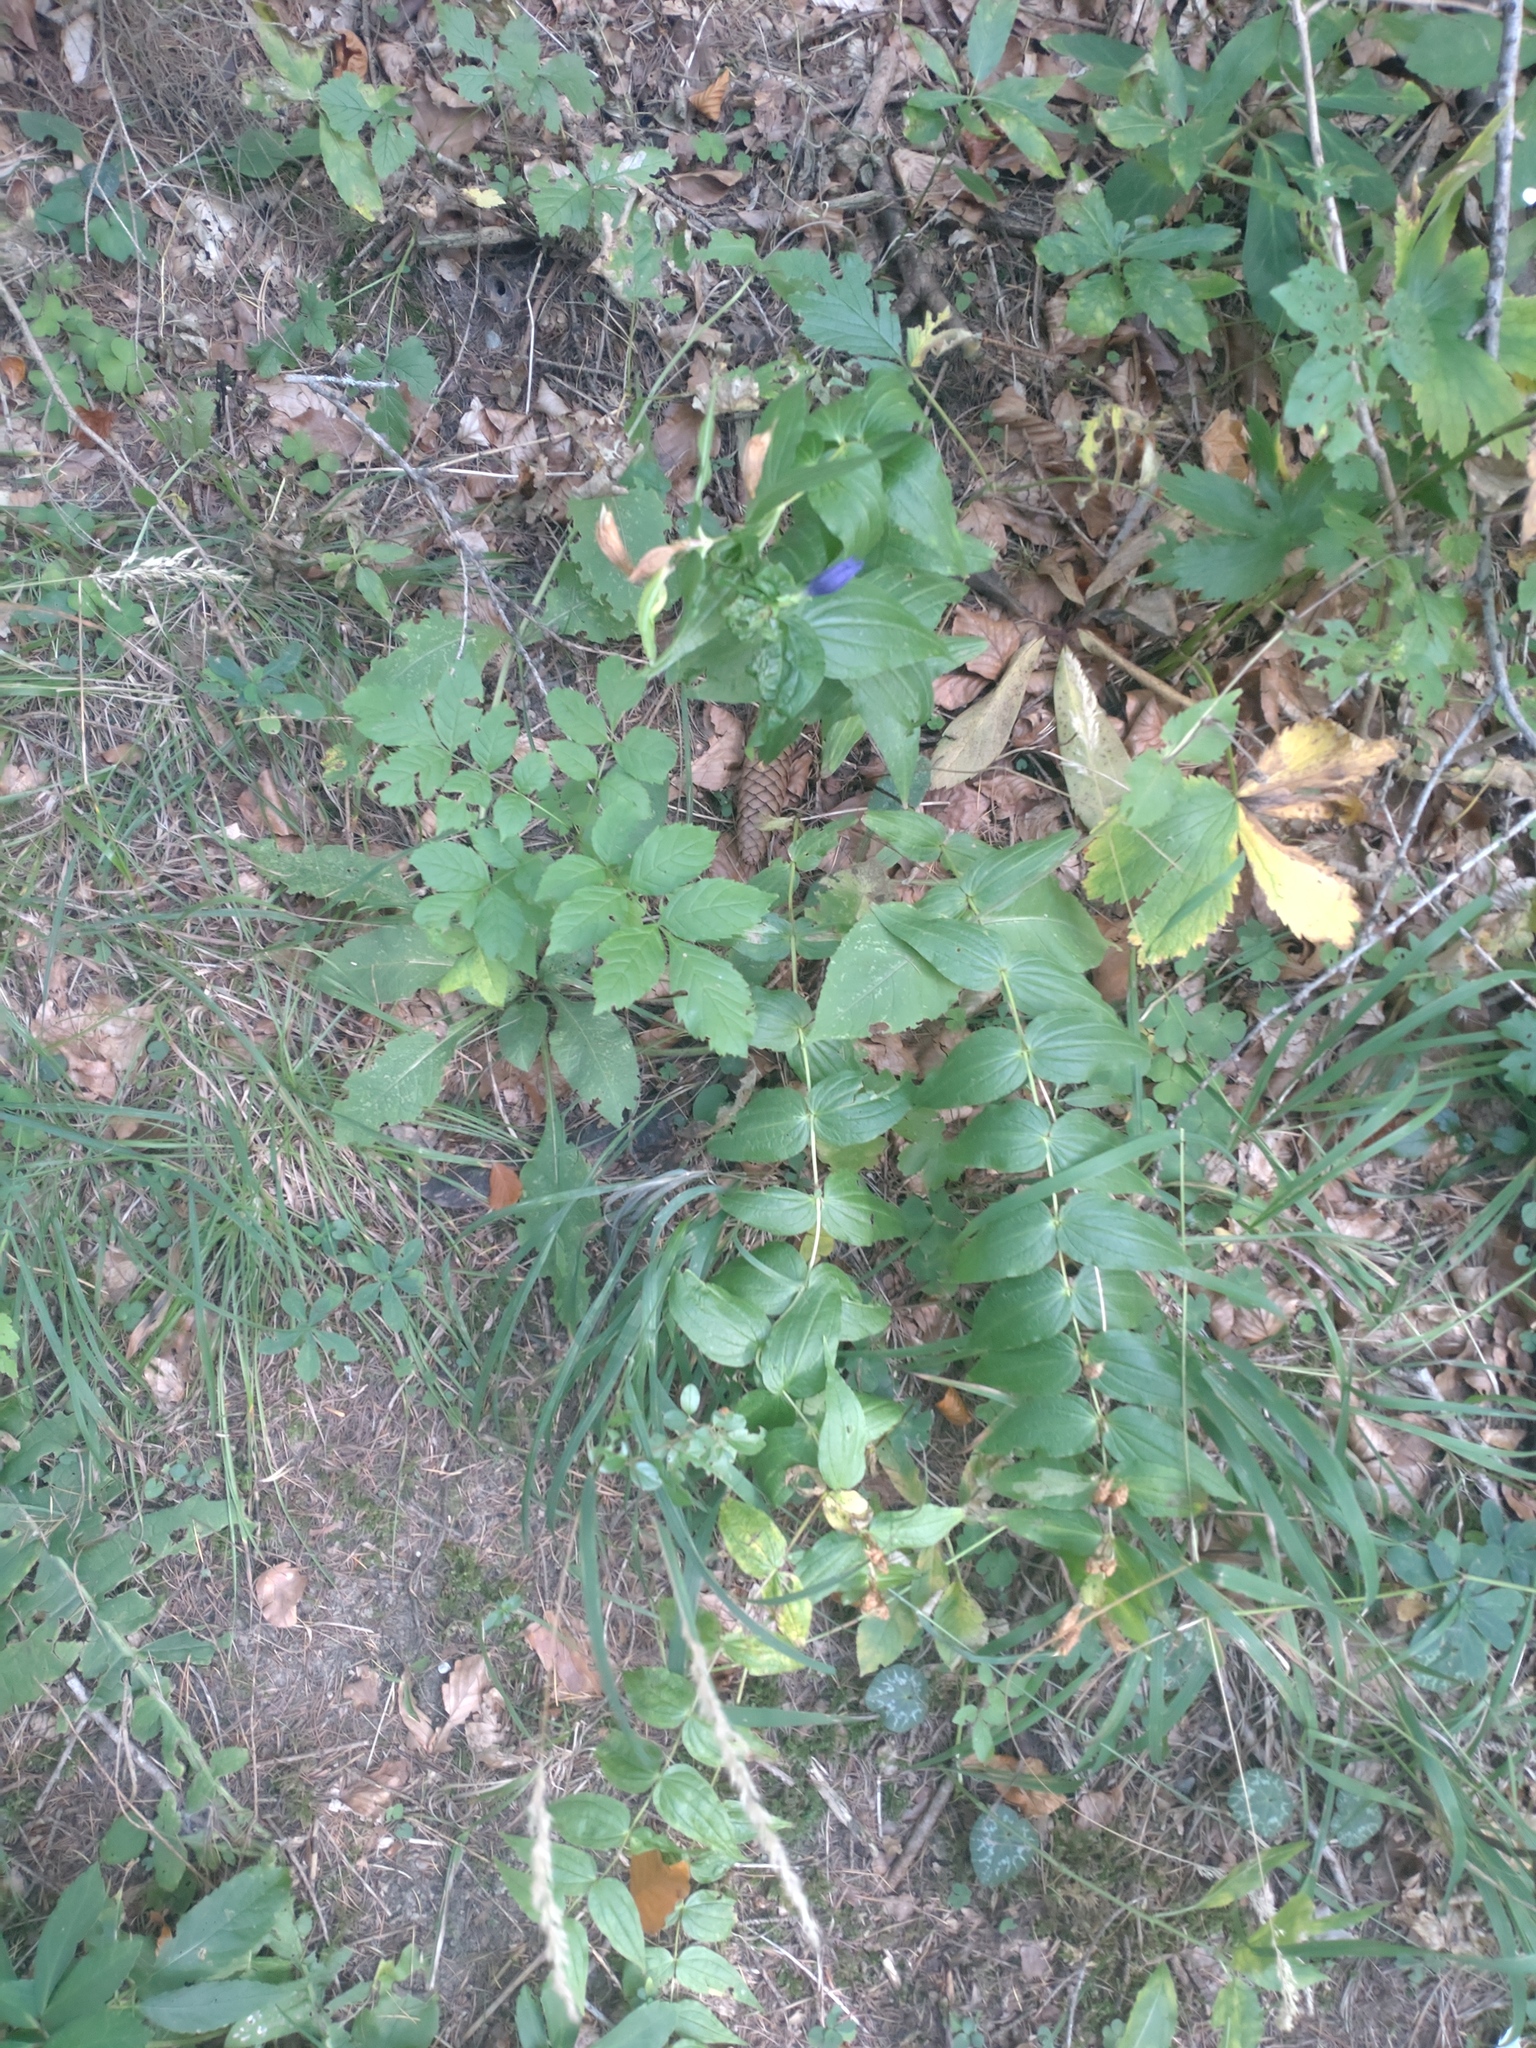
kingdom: Plantae
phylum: Tracheophyta
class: Magnoliopsida
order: Gentianales
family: Gentianaceae
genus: Gentiana
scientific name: Gentiana asclepiadea
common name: Willow gentian
